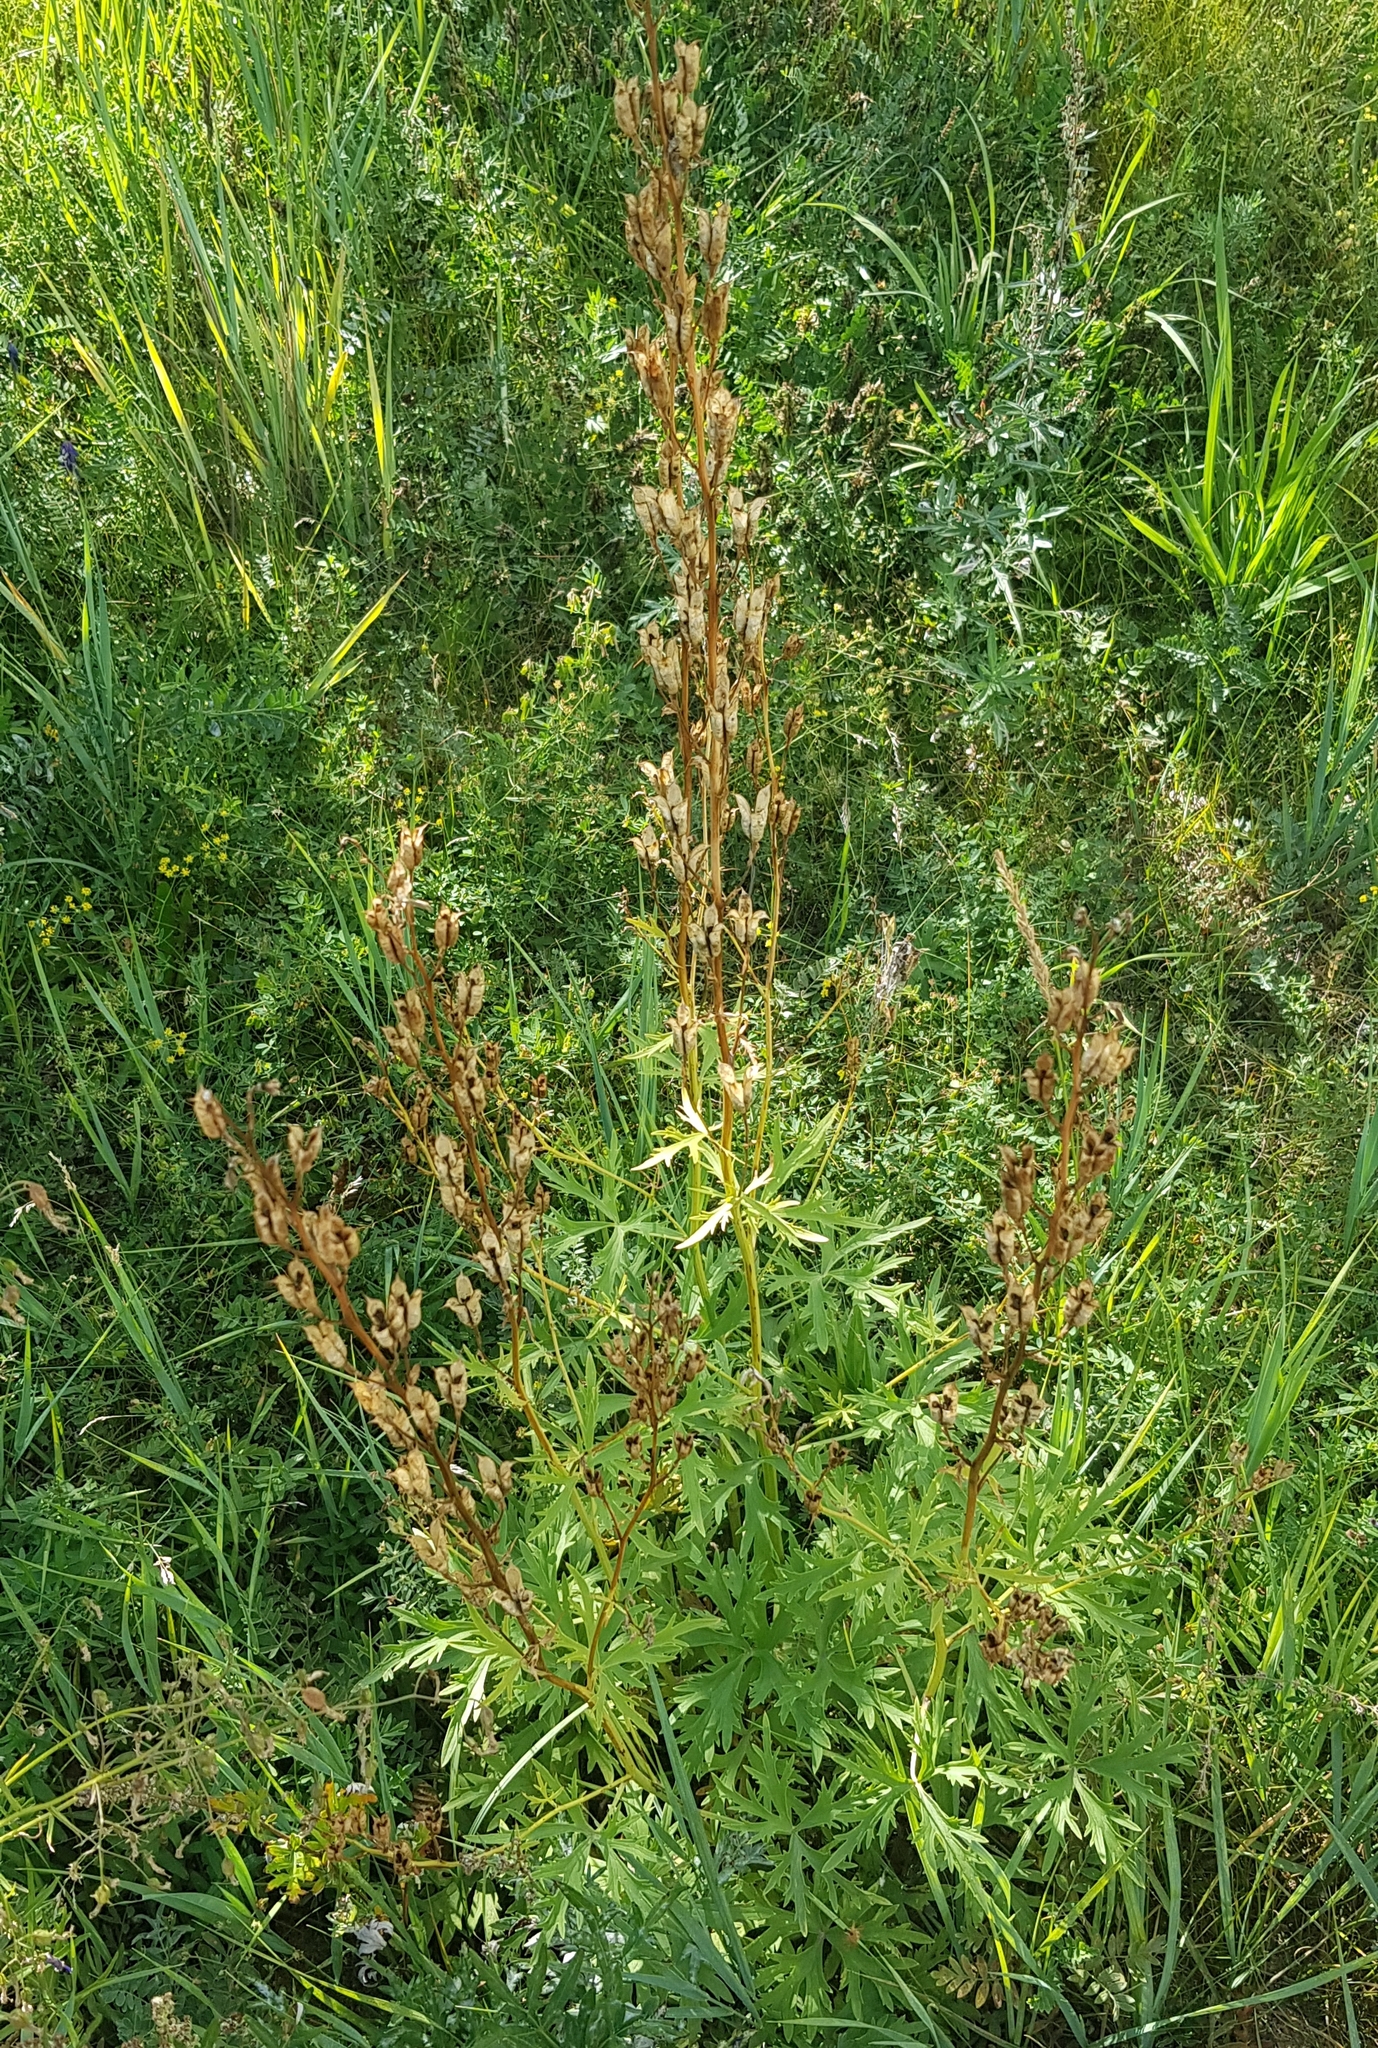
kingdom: Plantae
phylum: Tracheophyta
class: Magnoliopsida
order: Ranunculales
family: Ranunculaceae
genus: Aconitum
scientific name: Aconitum barbatum
